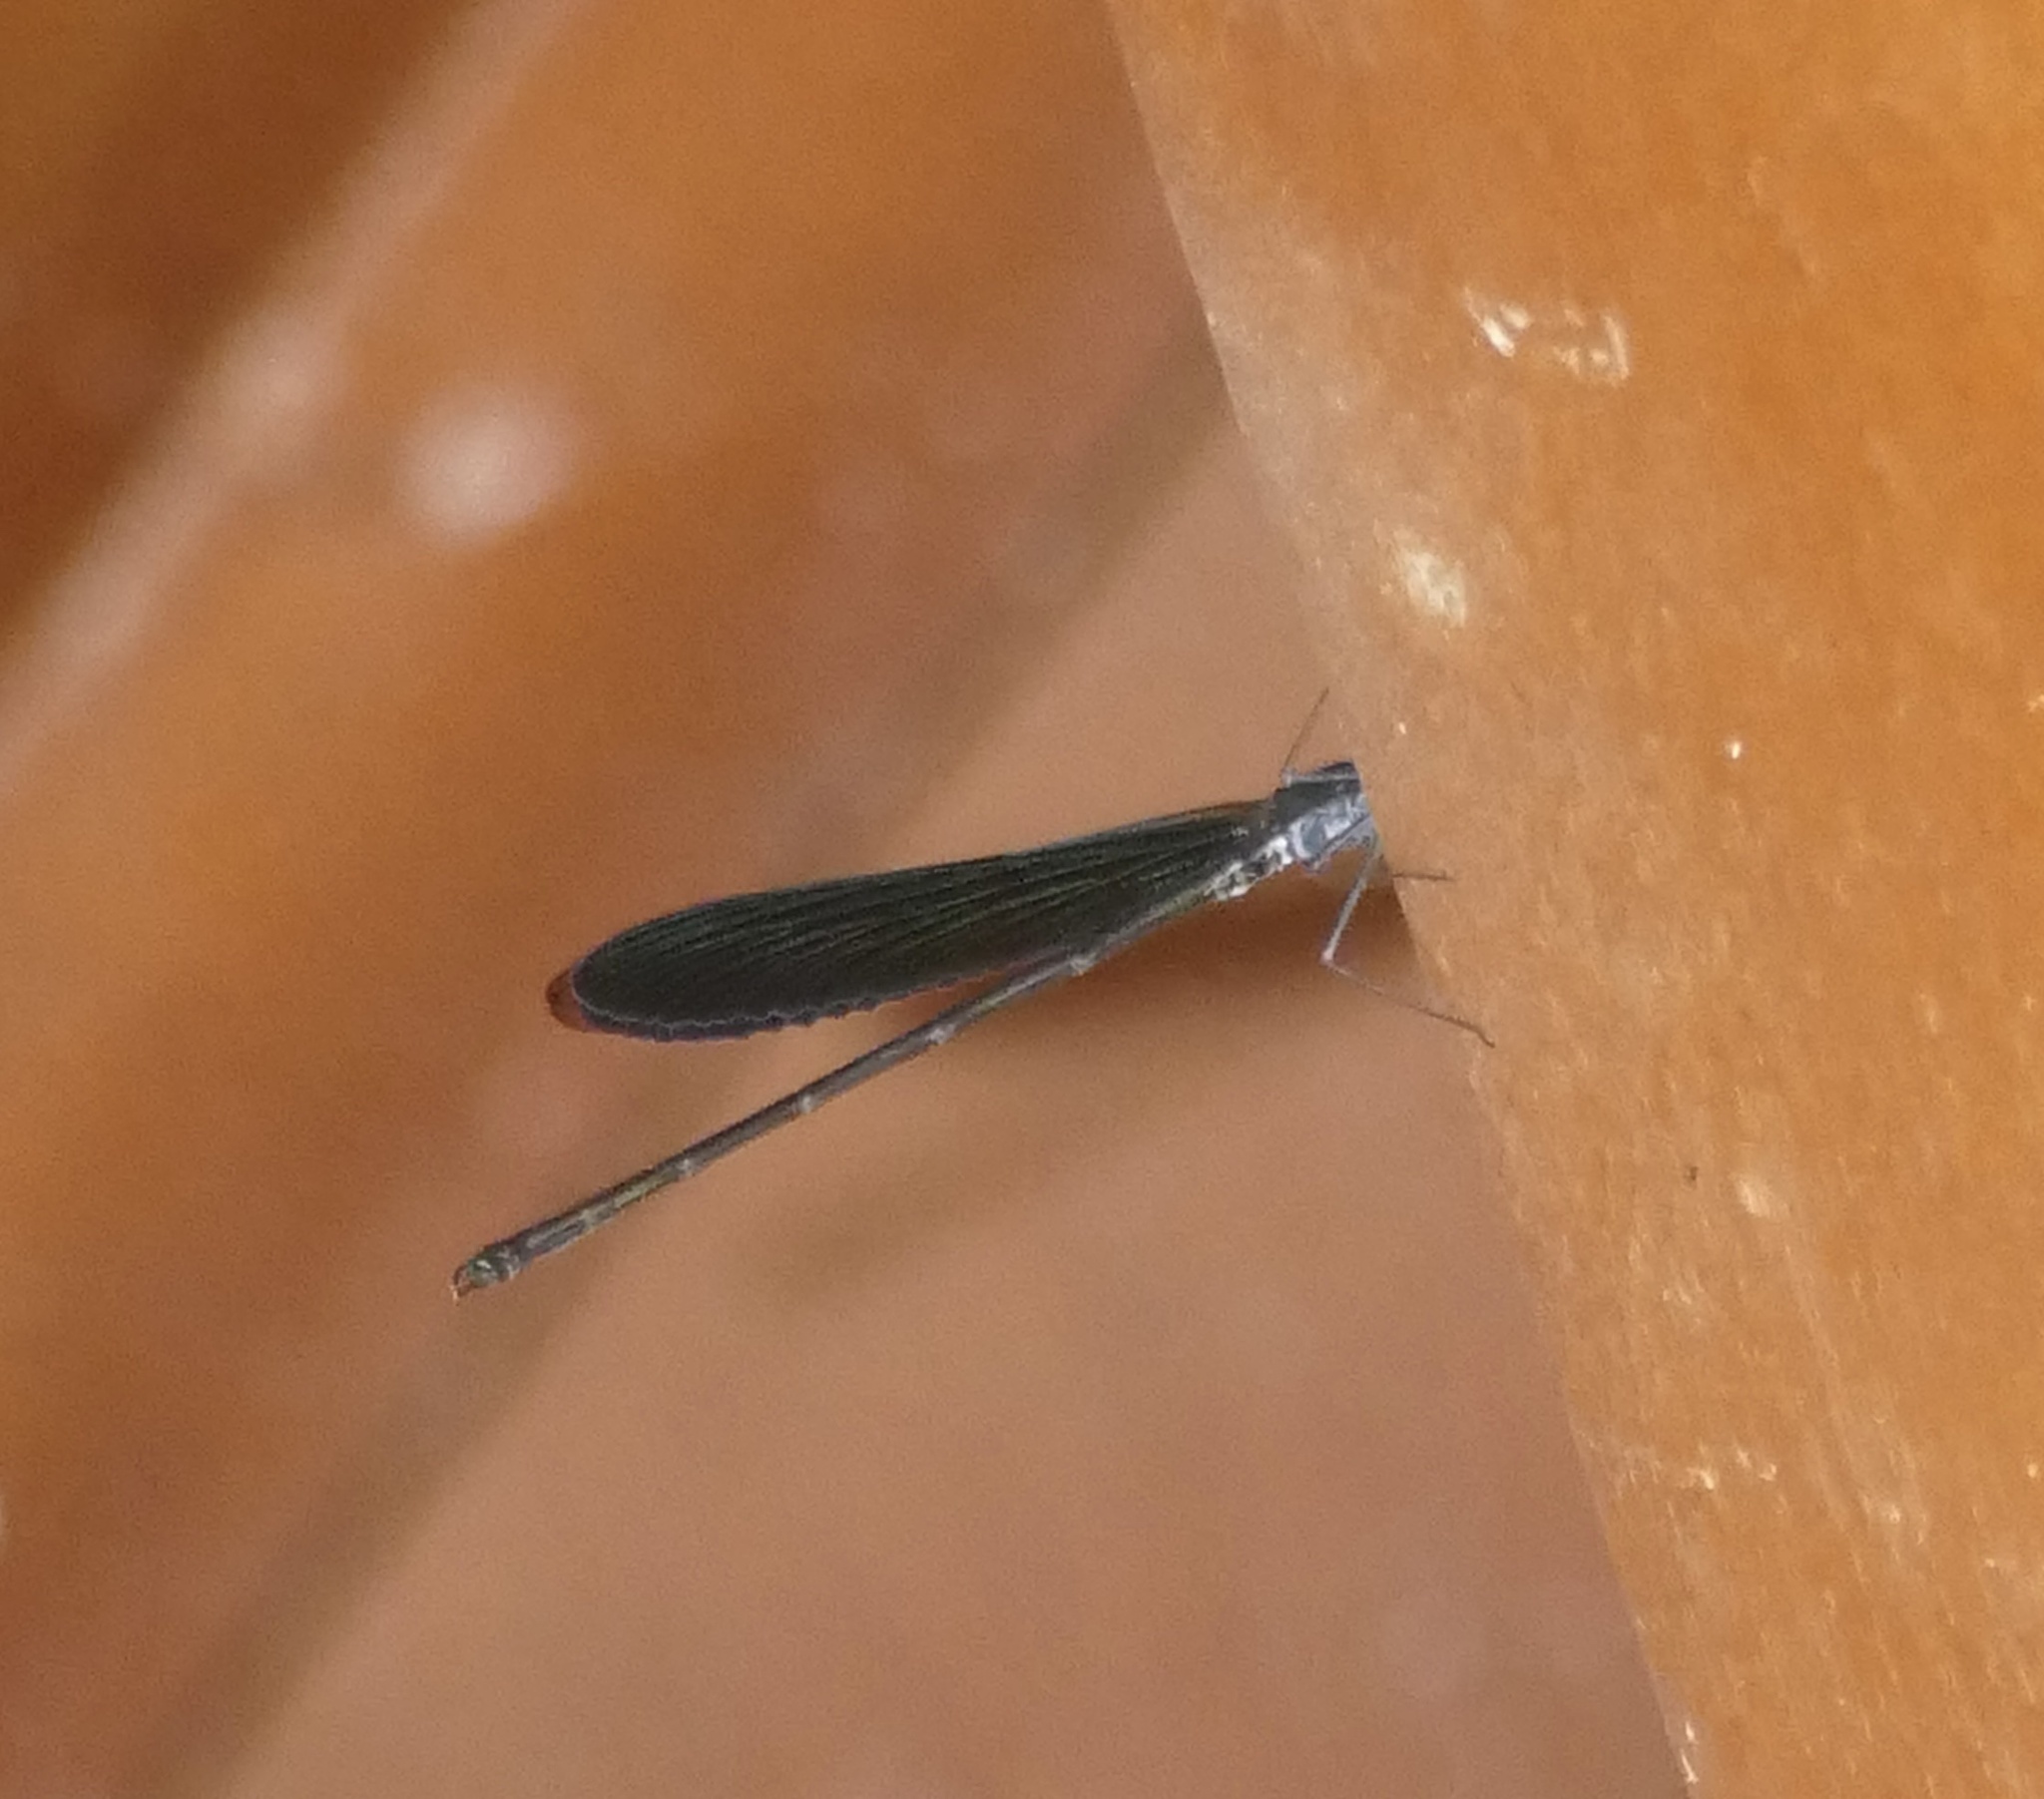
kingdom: Animalia
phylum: Arthropoda
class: Insecta
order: Odonata
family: Calopterygidae
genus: Neurobasis
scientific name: Neurobasis kaupi
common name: Great blue metalwing
